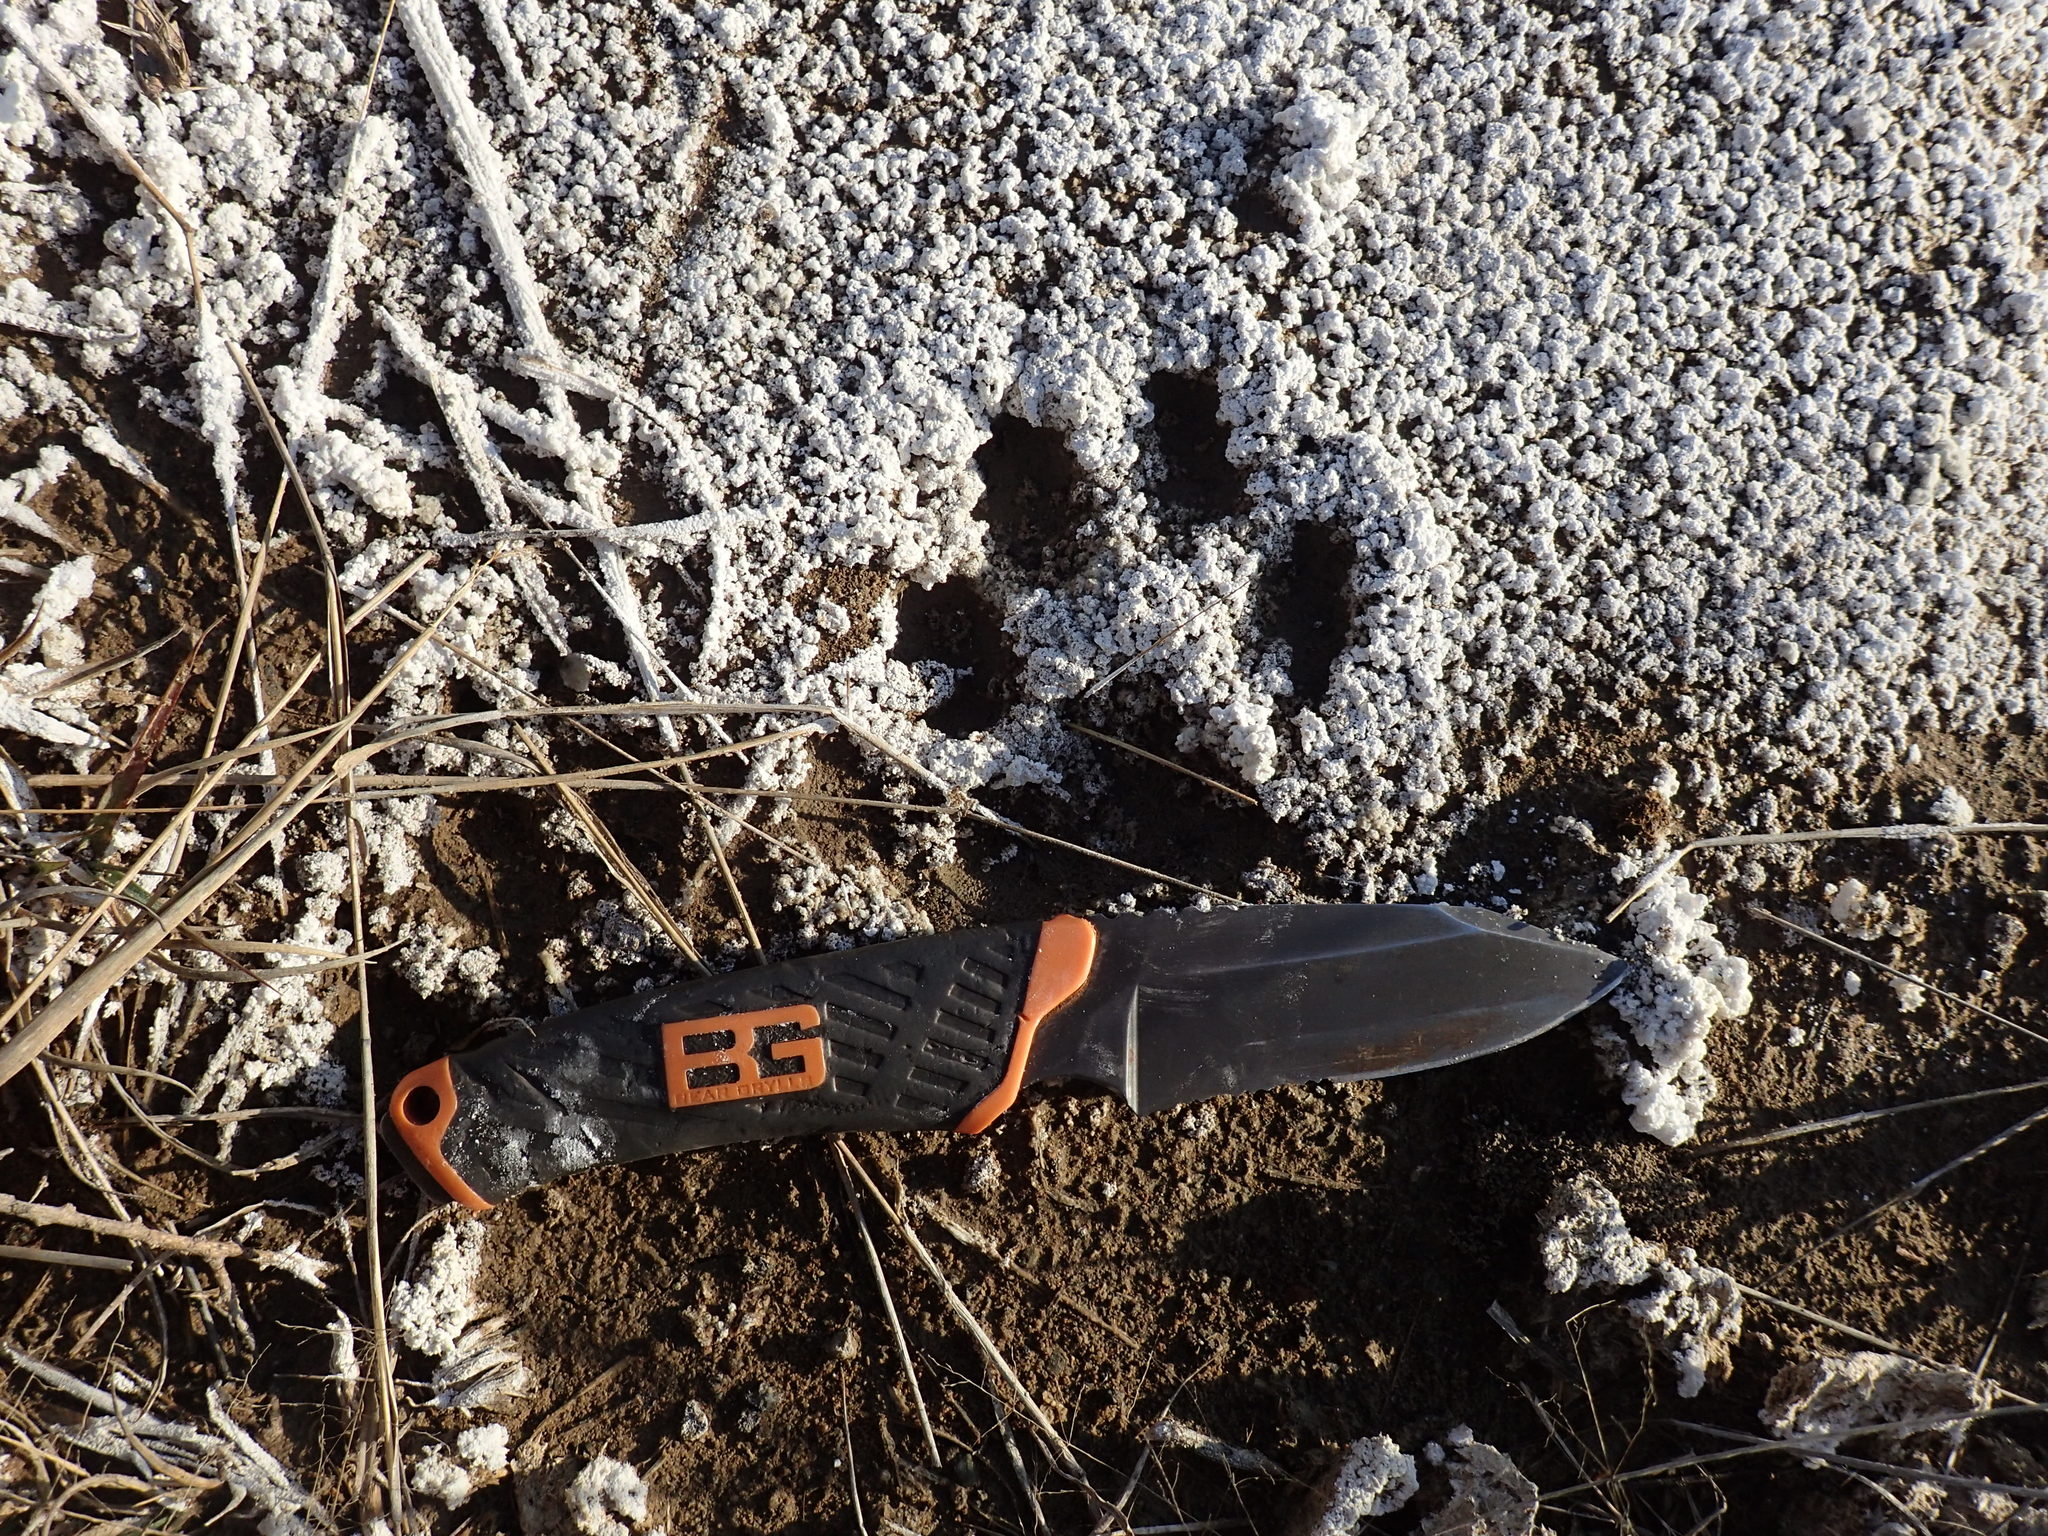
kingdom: Animalia
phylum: Chordata
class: Mammalia
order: Carnivora
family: Felidae
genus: Caracal
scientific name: Caracal caracal
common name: Caracal
